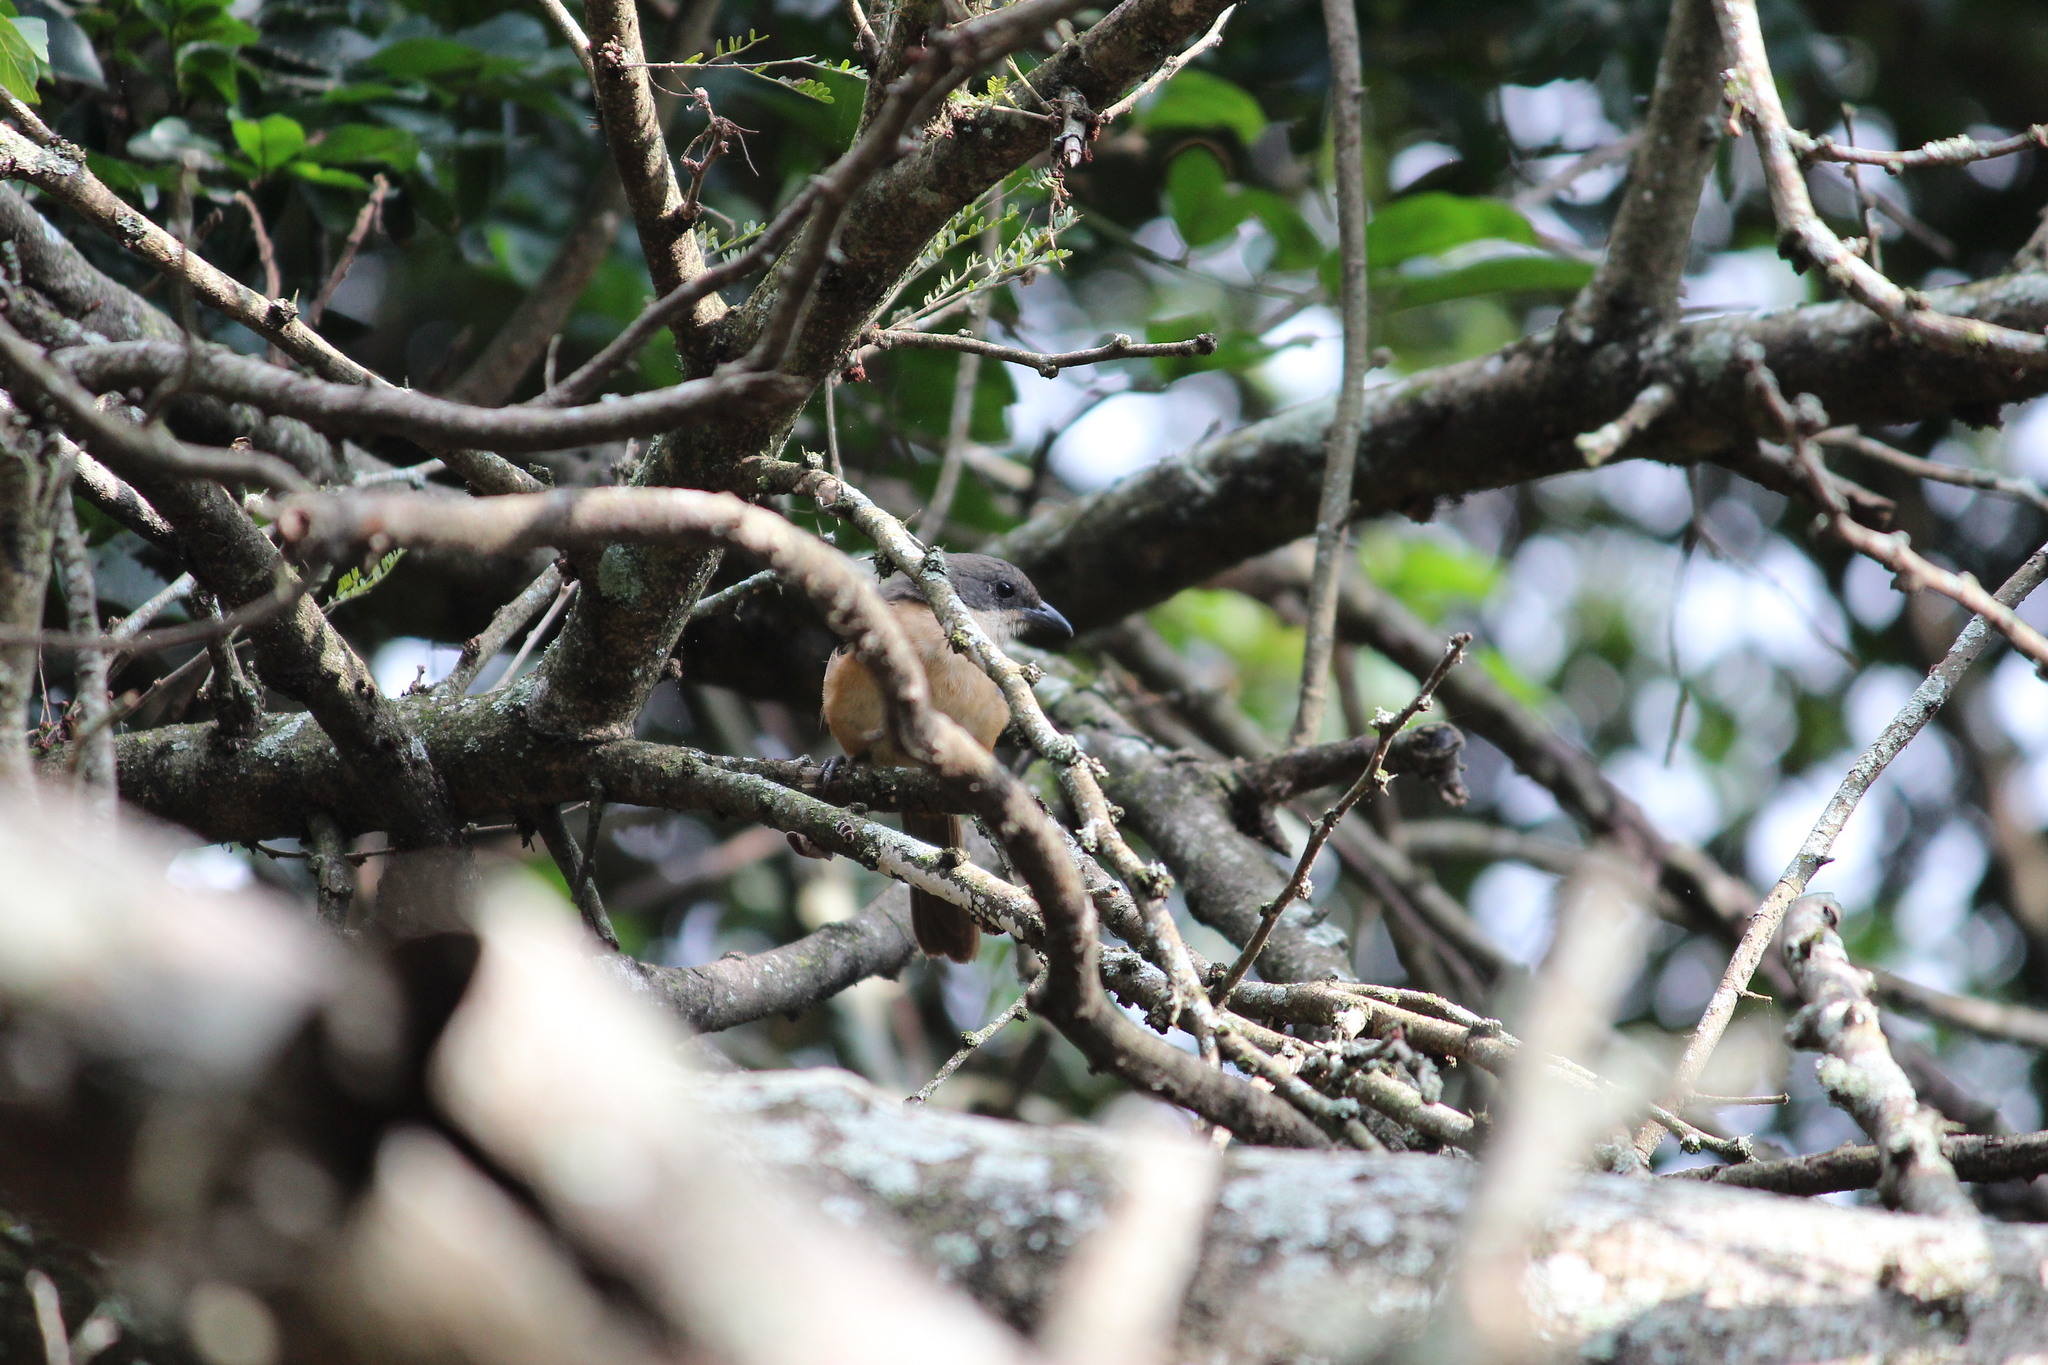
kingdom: Animalia
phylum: Chordata
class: Aves
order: Passeriformes
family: Malaconotidae
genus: Laniarius
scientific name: Laniarius ferrugineus
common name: Southern boubou
